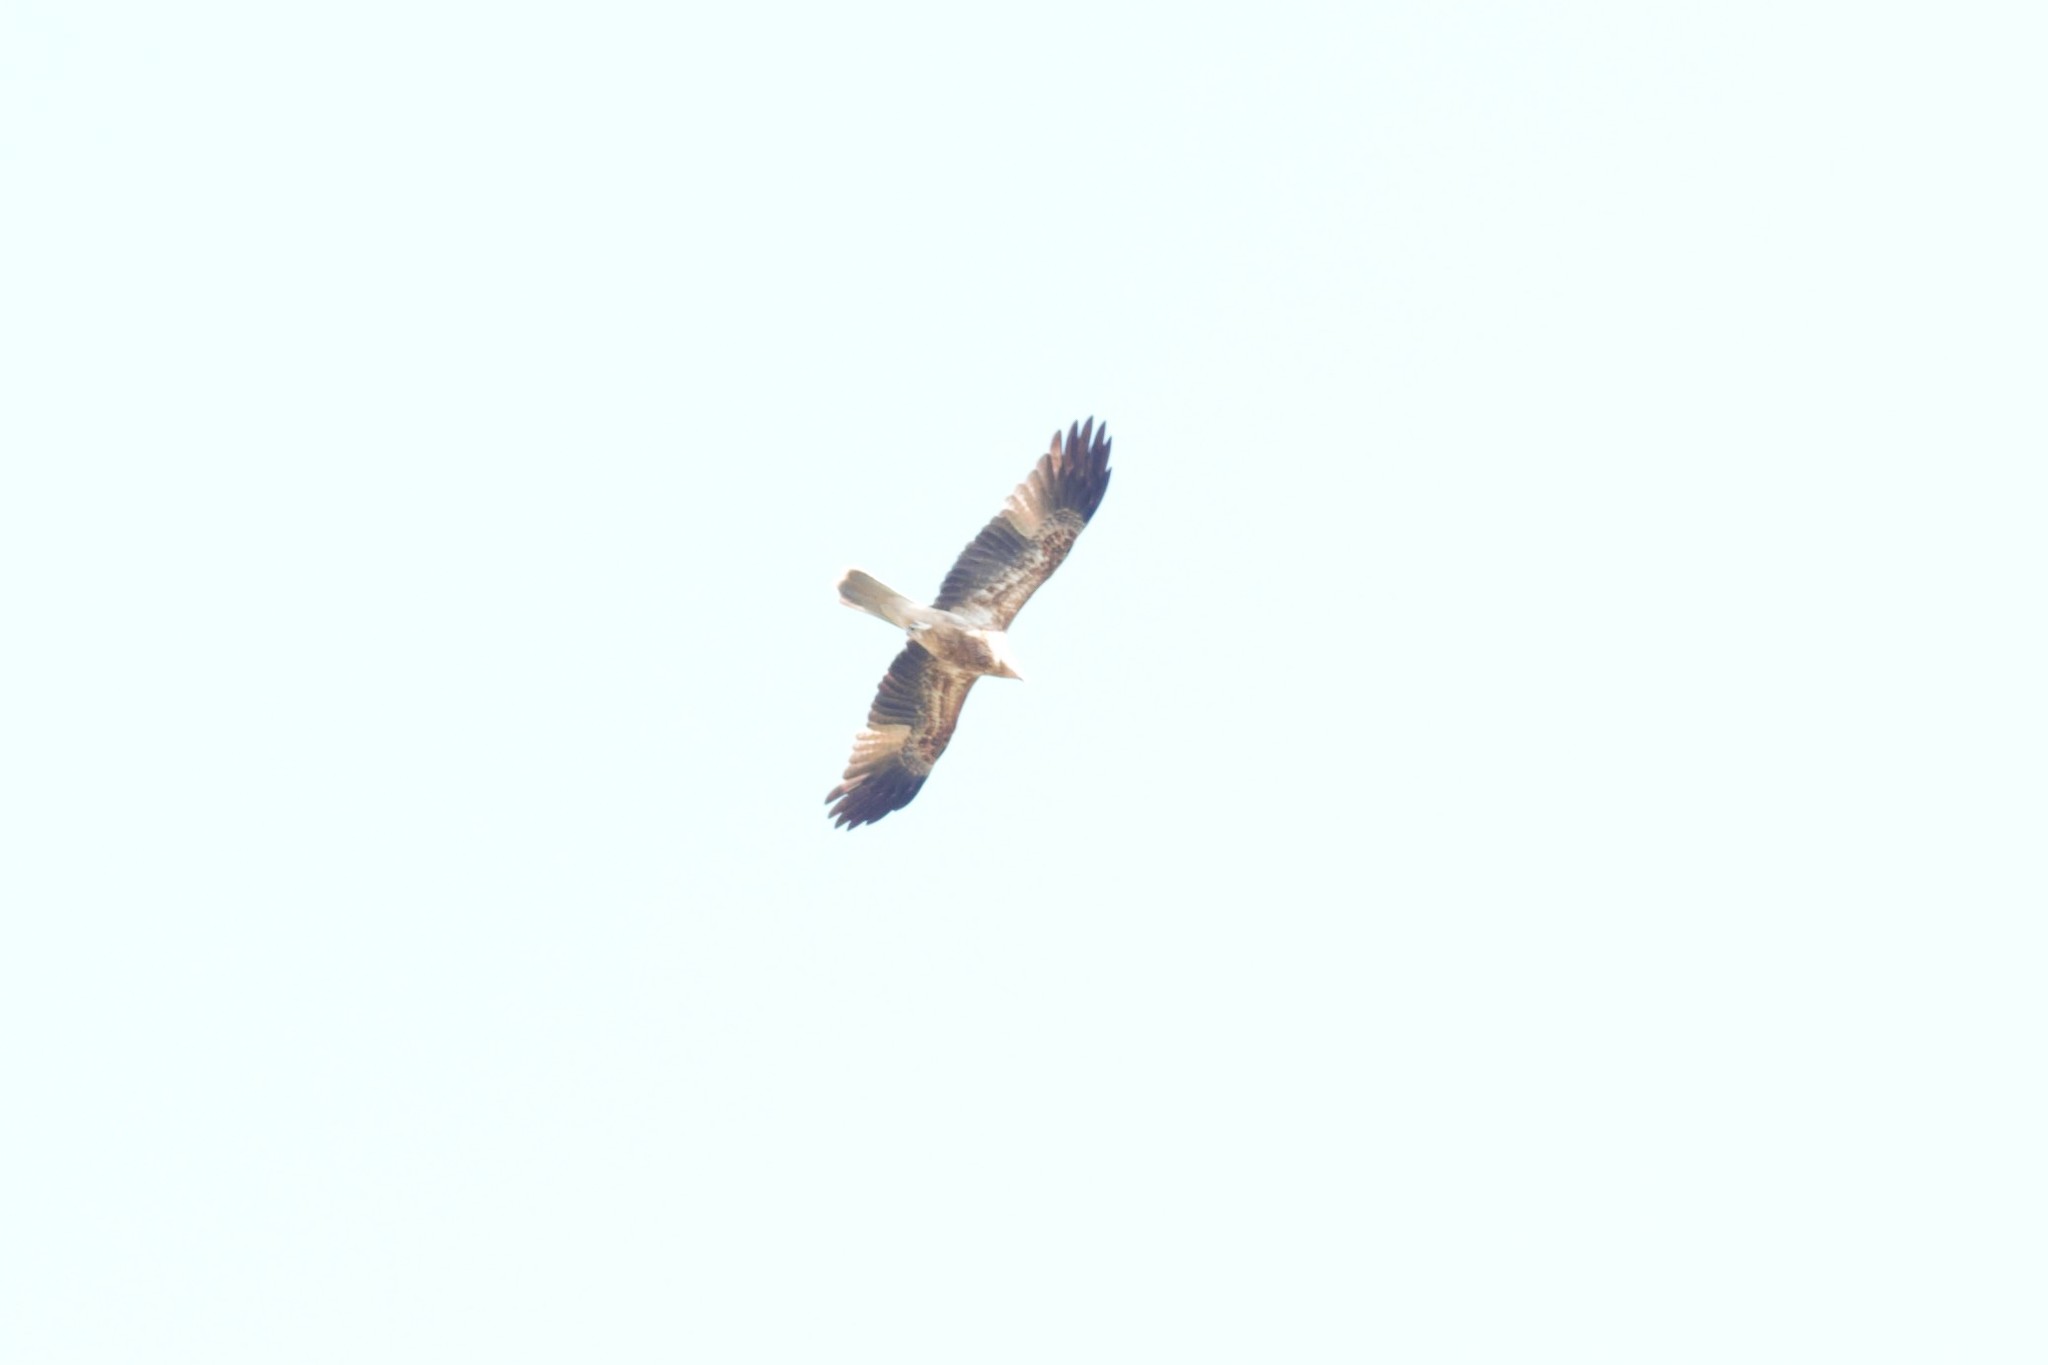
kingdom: Animalia
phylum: Chordata
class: Aves
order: Accipitriformes
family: Accipitridae
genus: Haliastur
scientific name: Haliastur sphenurus
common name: Whistling kite
